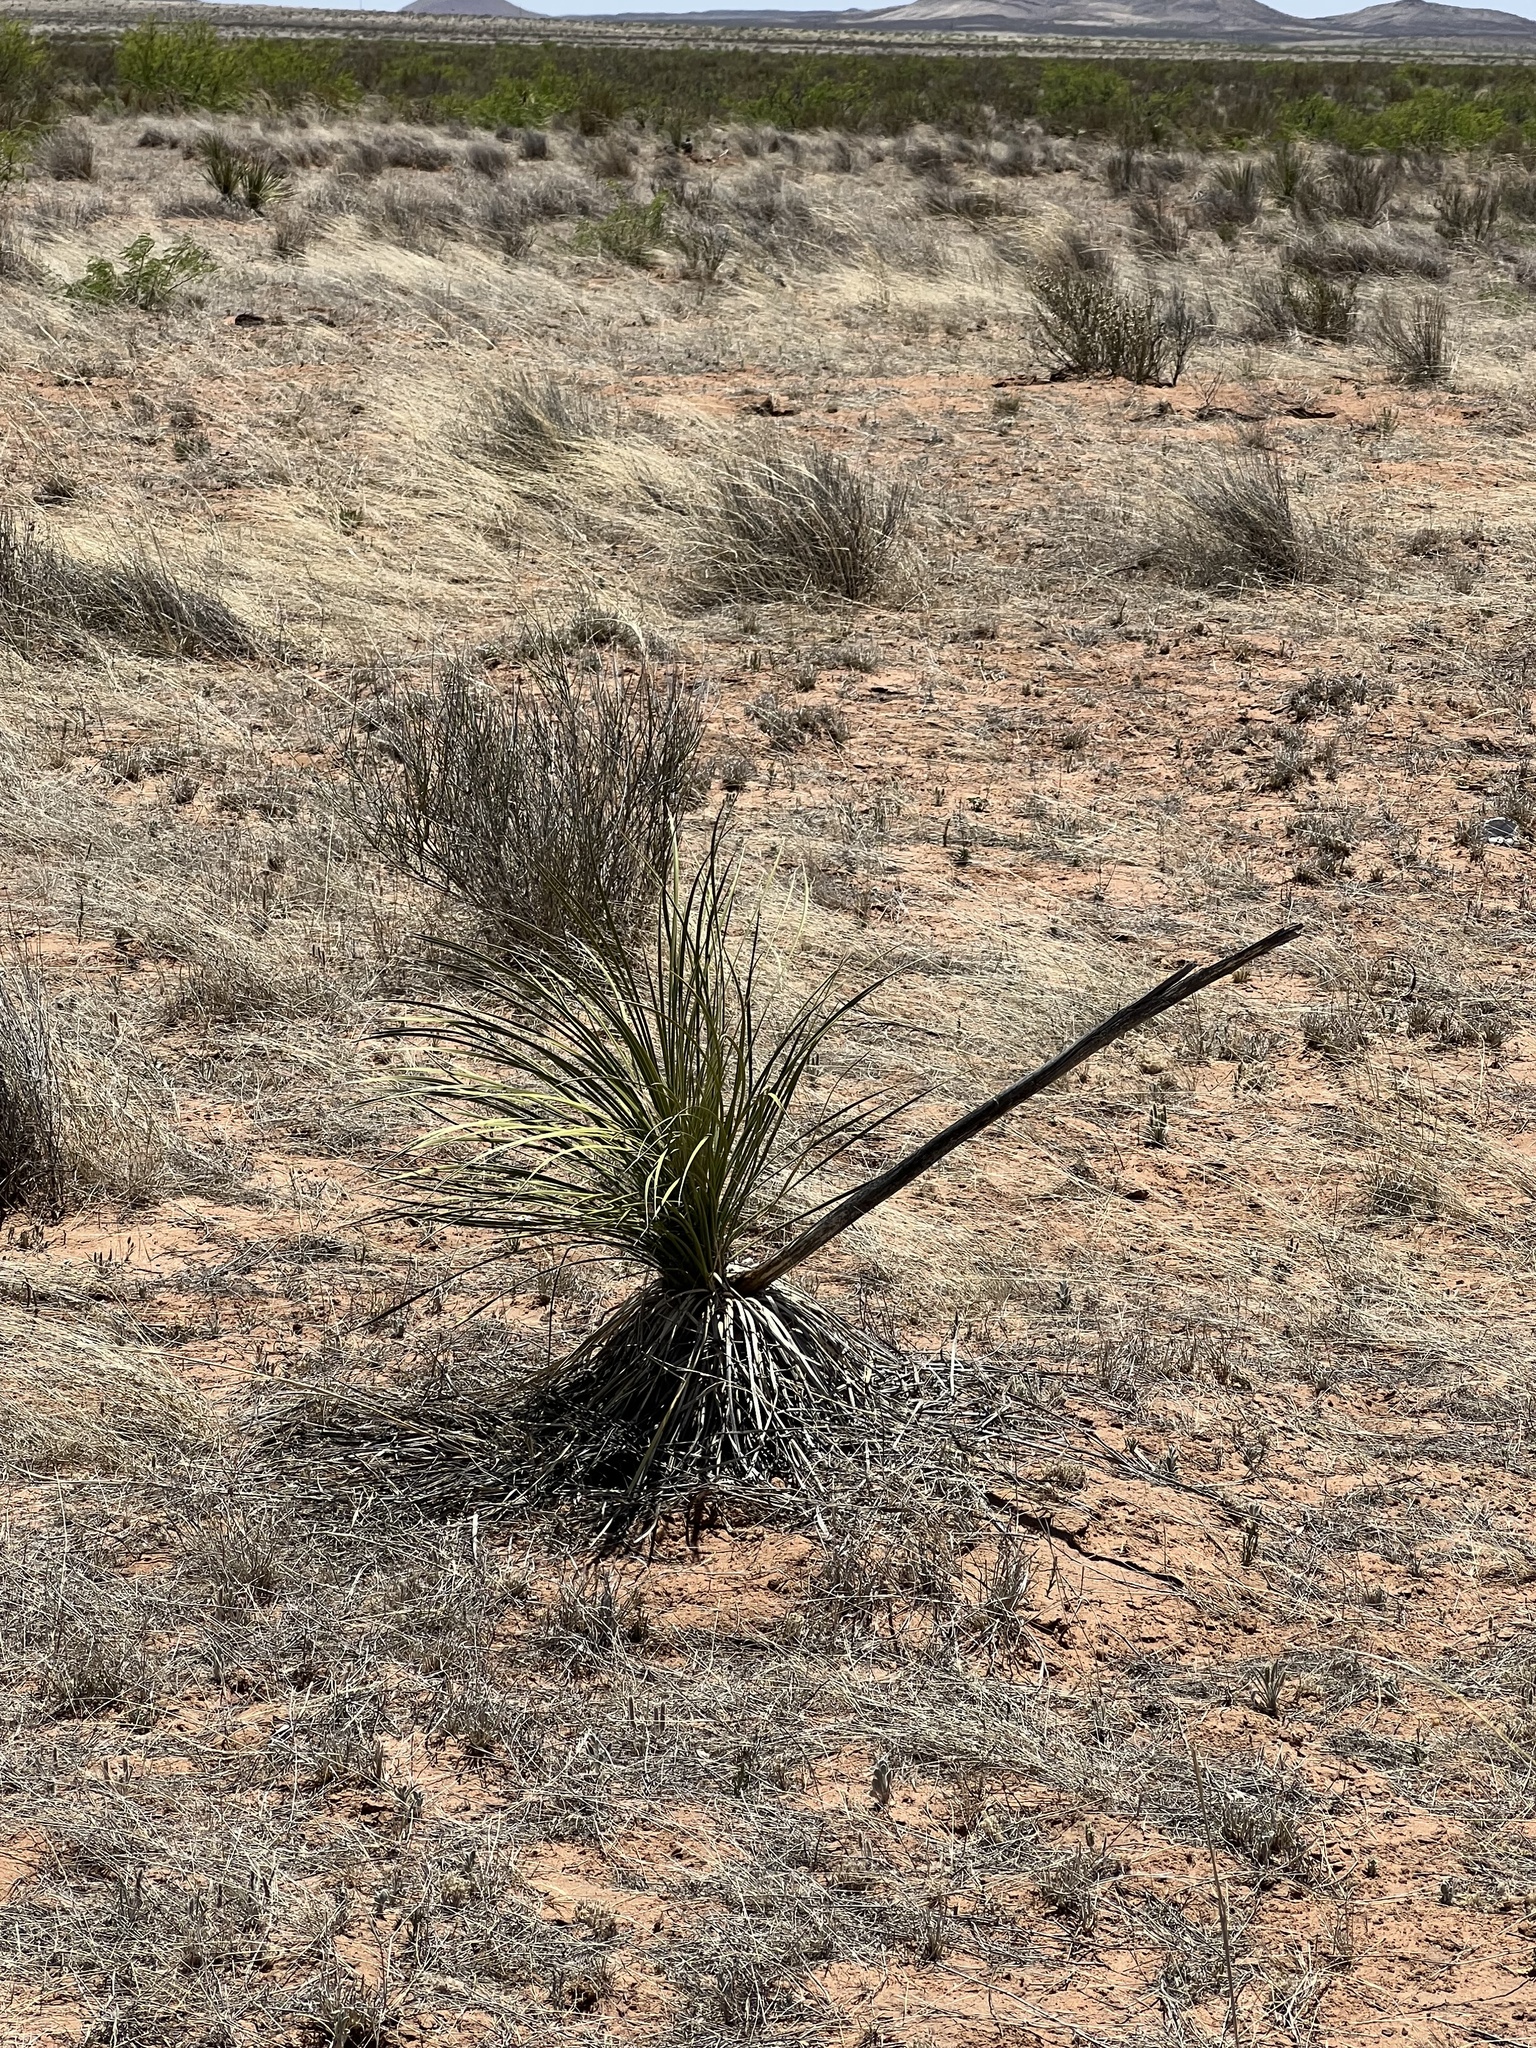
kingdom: Plantae
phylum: Tracheophyta
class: Liliopsida
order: Asparagales
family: Asparagaceae
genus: Yucca
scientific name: Yucca elata
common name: Palmella
